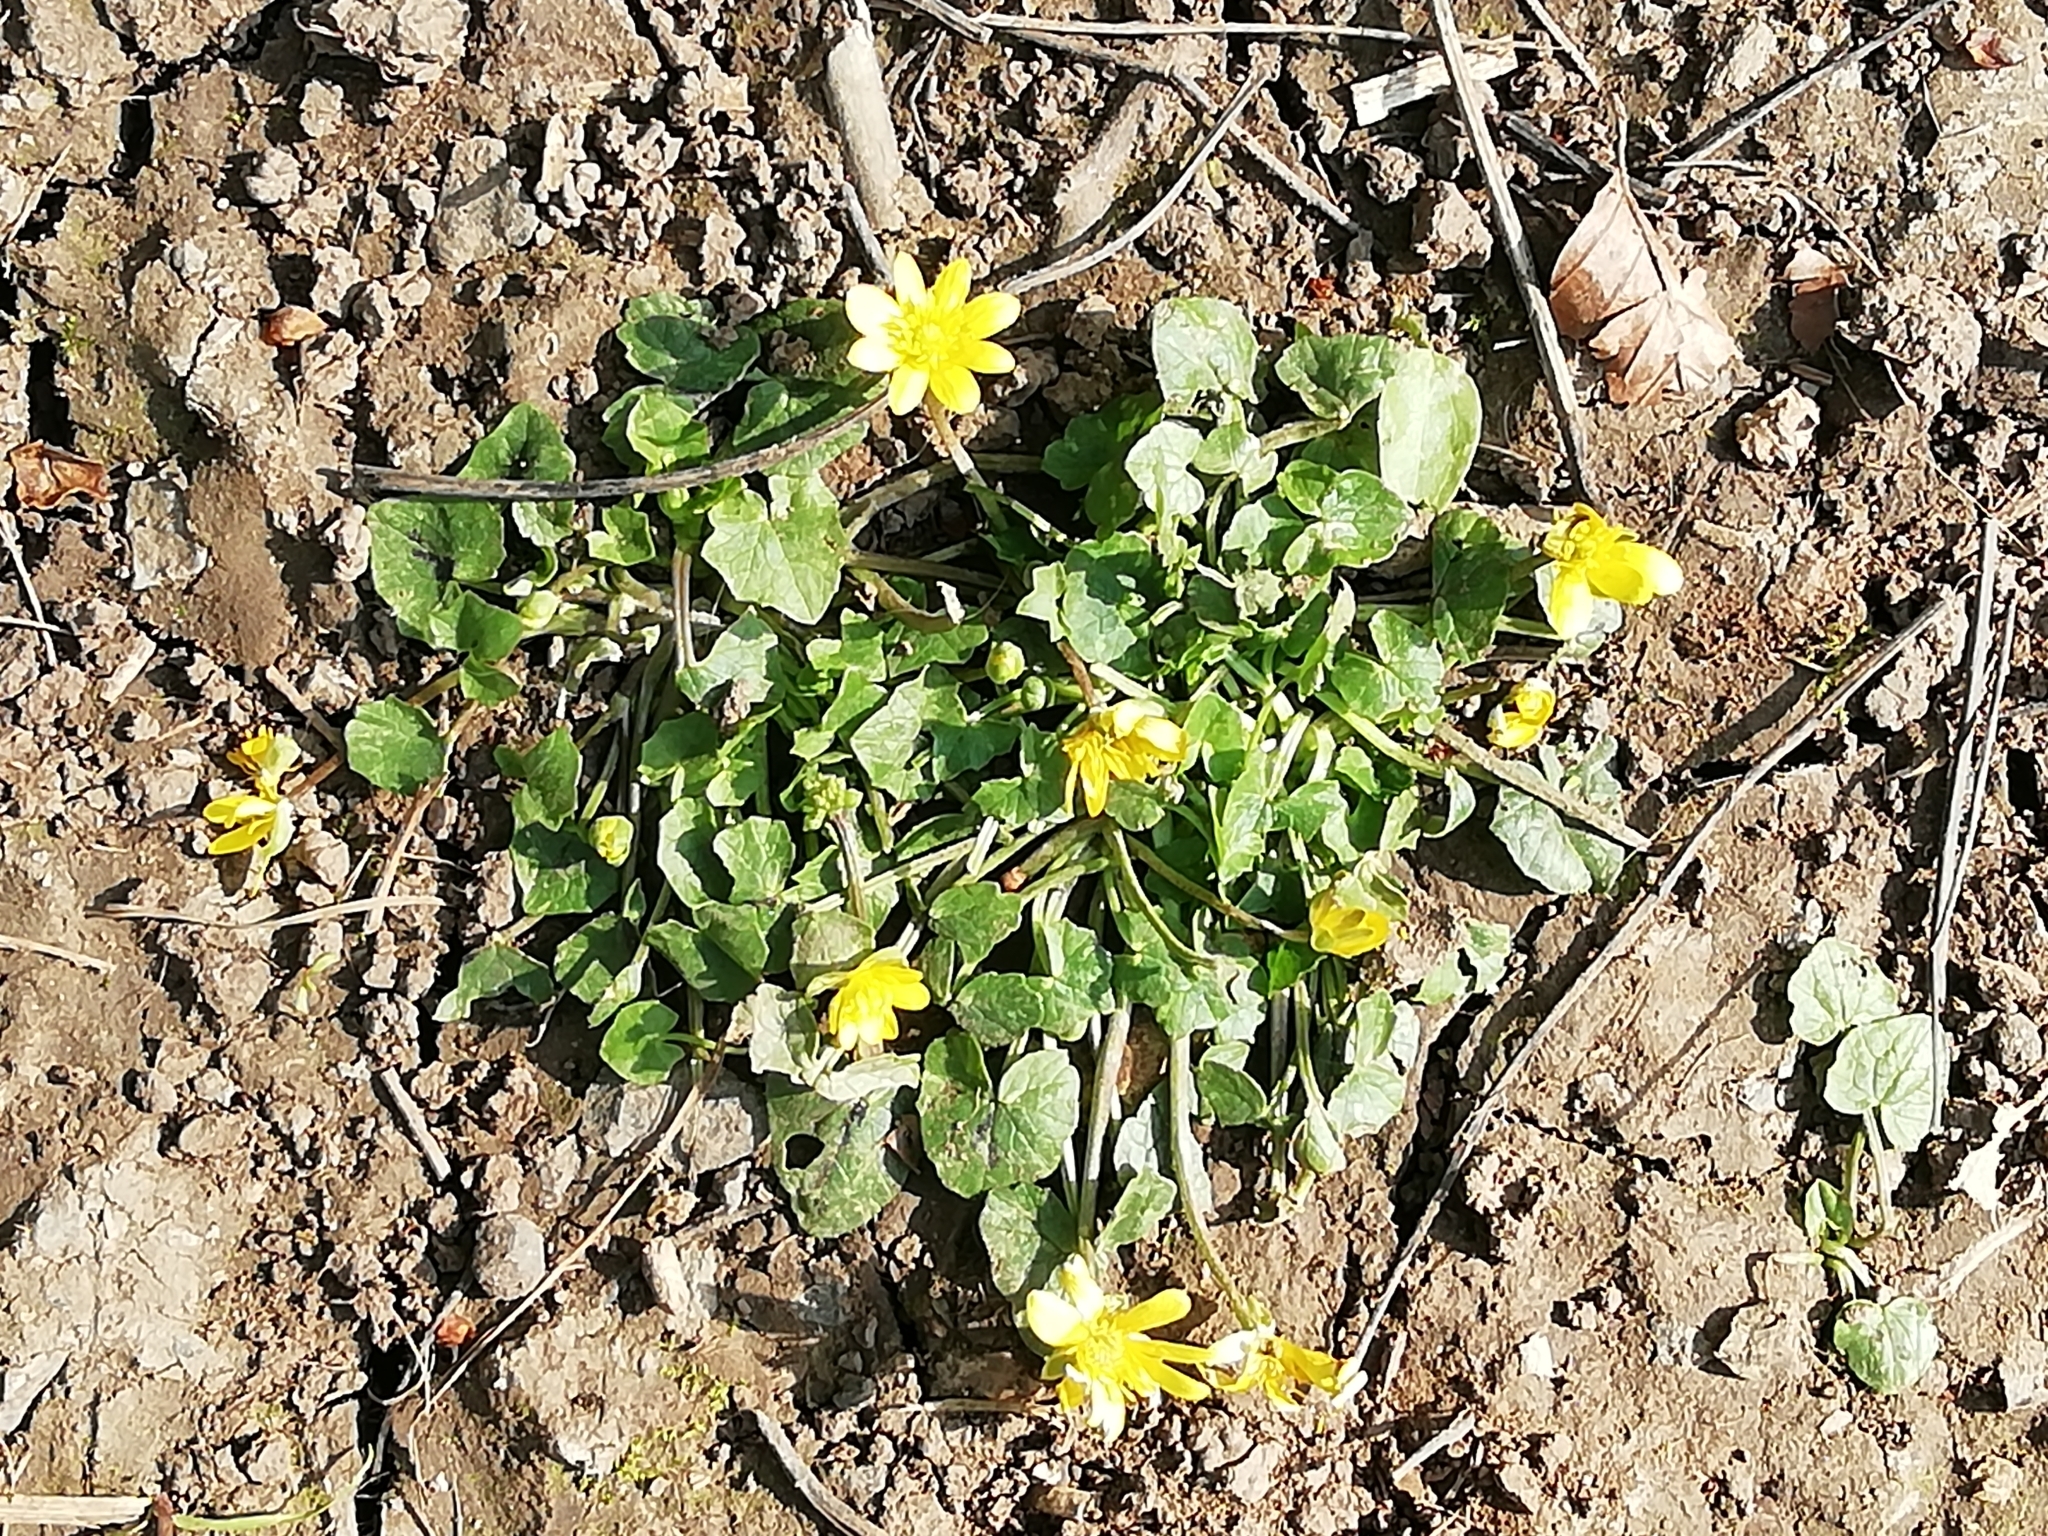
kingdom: Plantae
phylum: Tracheophyta
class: Magnoliopsida
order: Ranunculales
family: Ranunculaceae
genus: Ficaria
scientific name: Ficaria verna
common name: Lesser celandine
